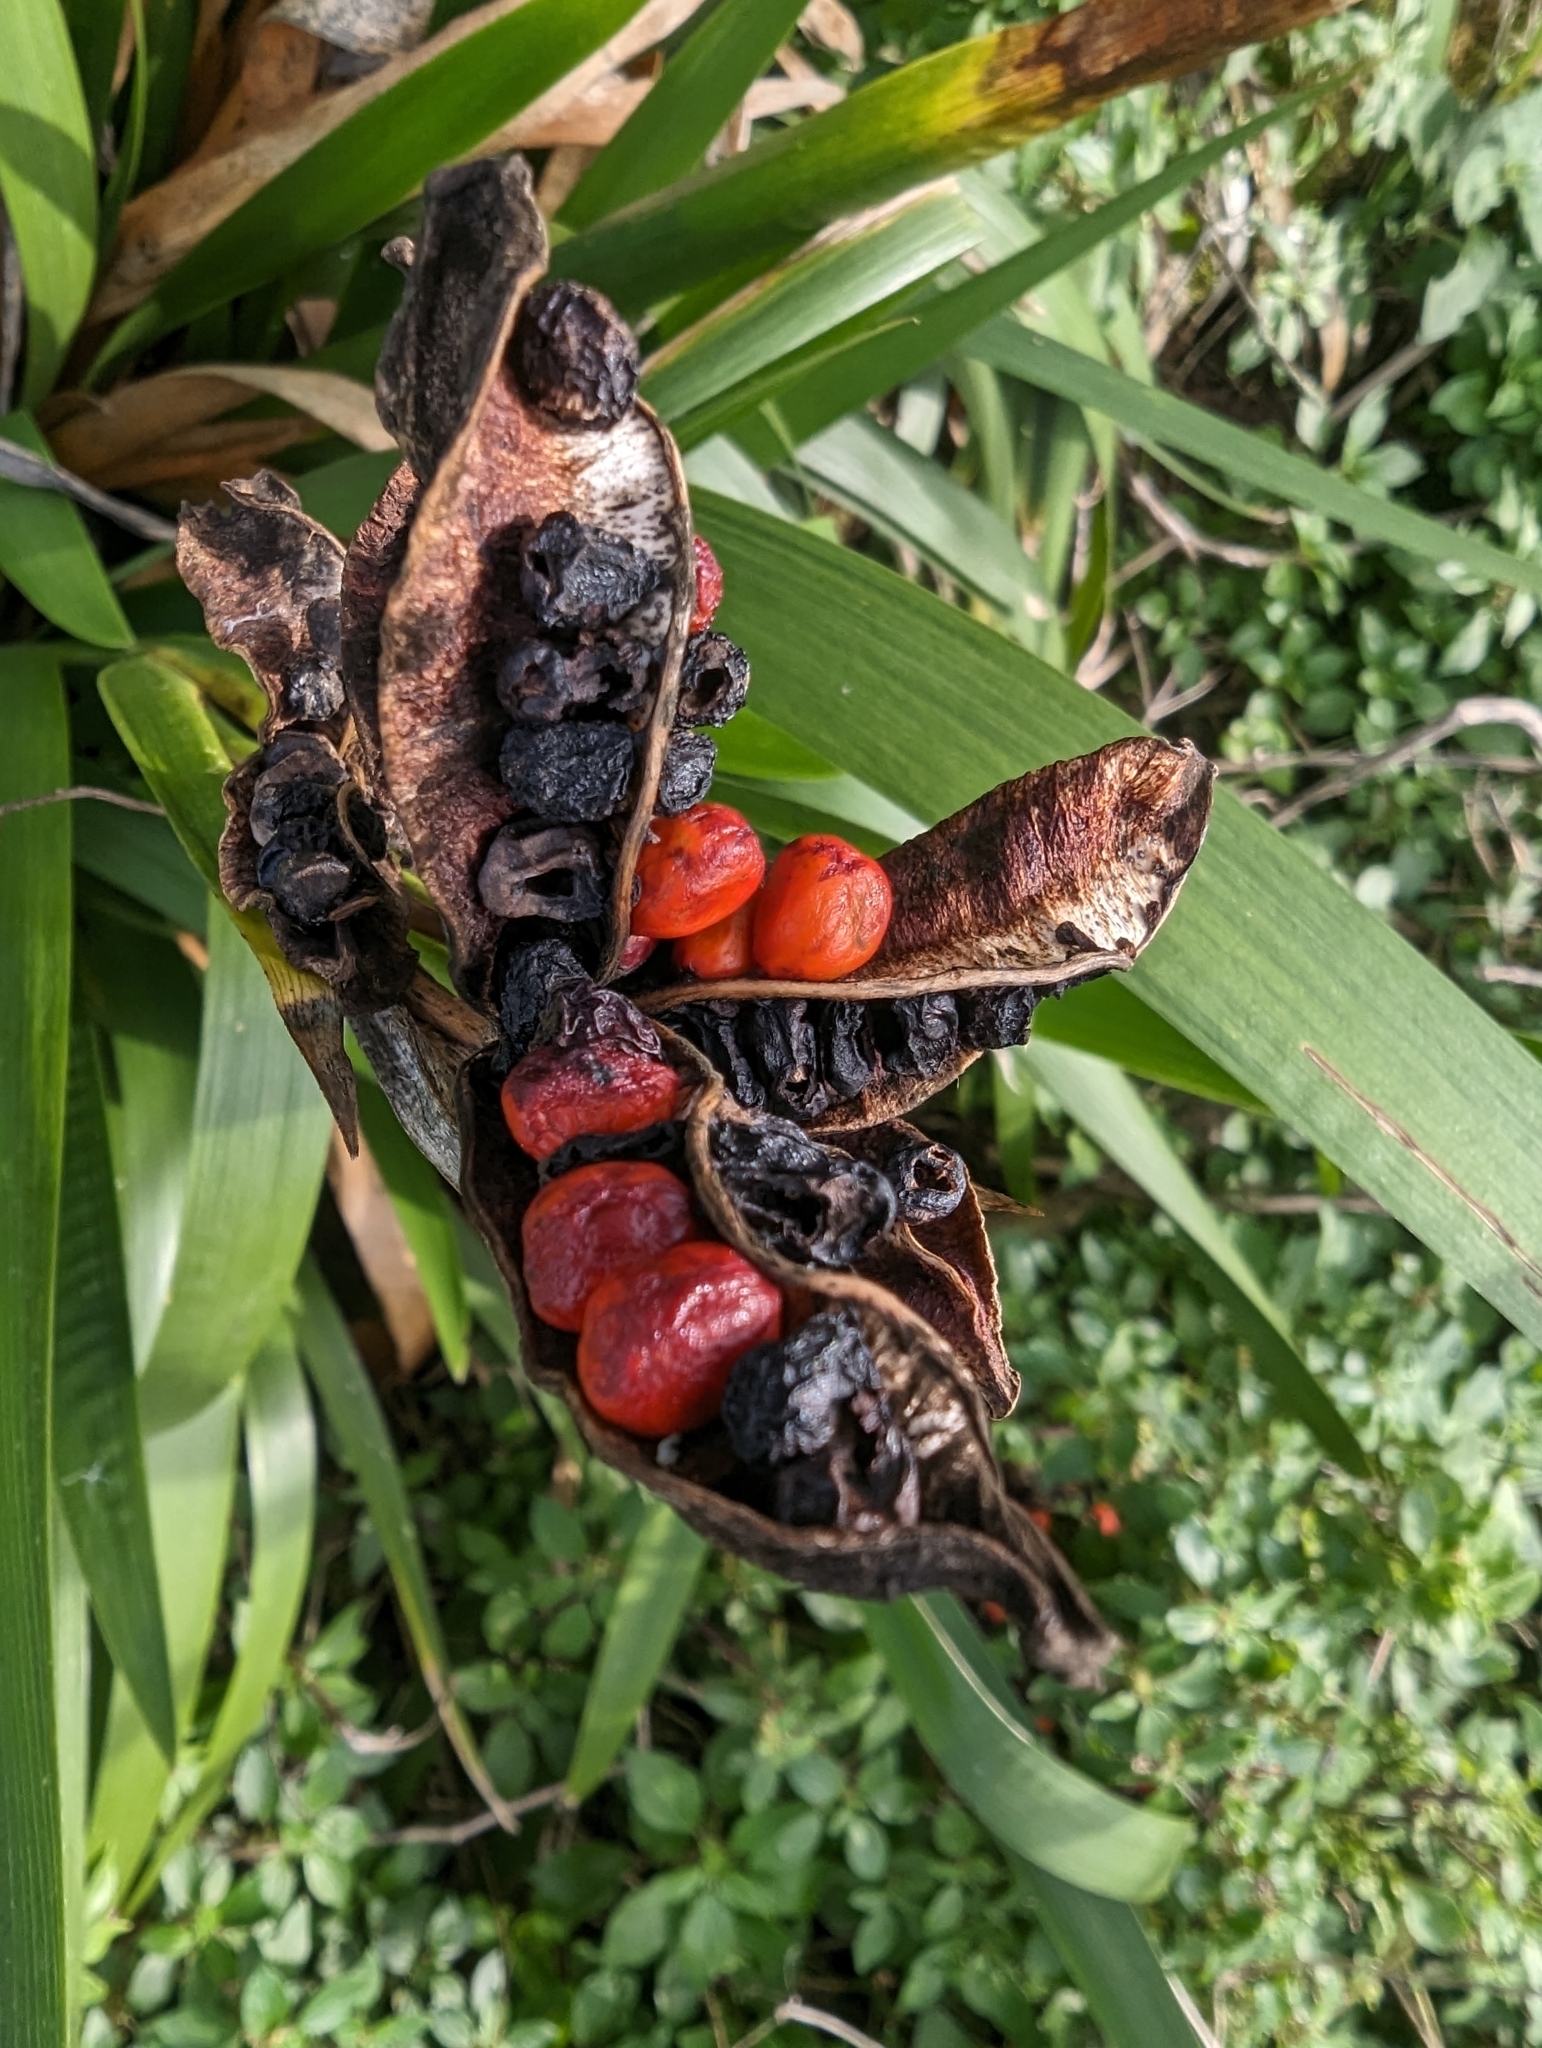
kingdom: Plantae
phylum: Tracheophyta
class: Liliopsida
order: Asparagales
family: Iridaceae
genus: Iris
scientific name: Iris foetidissima
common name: Stinking iris
